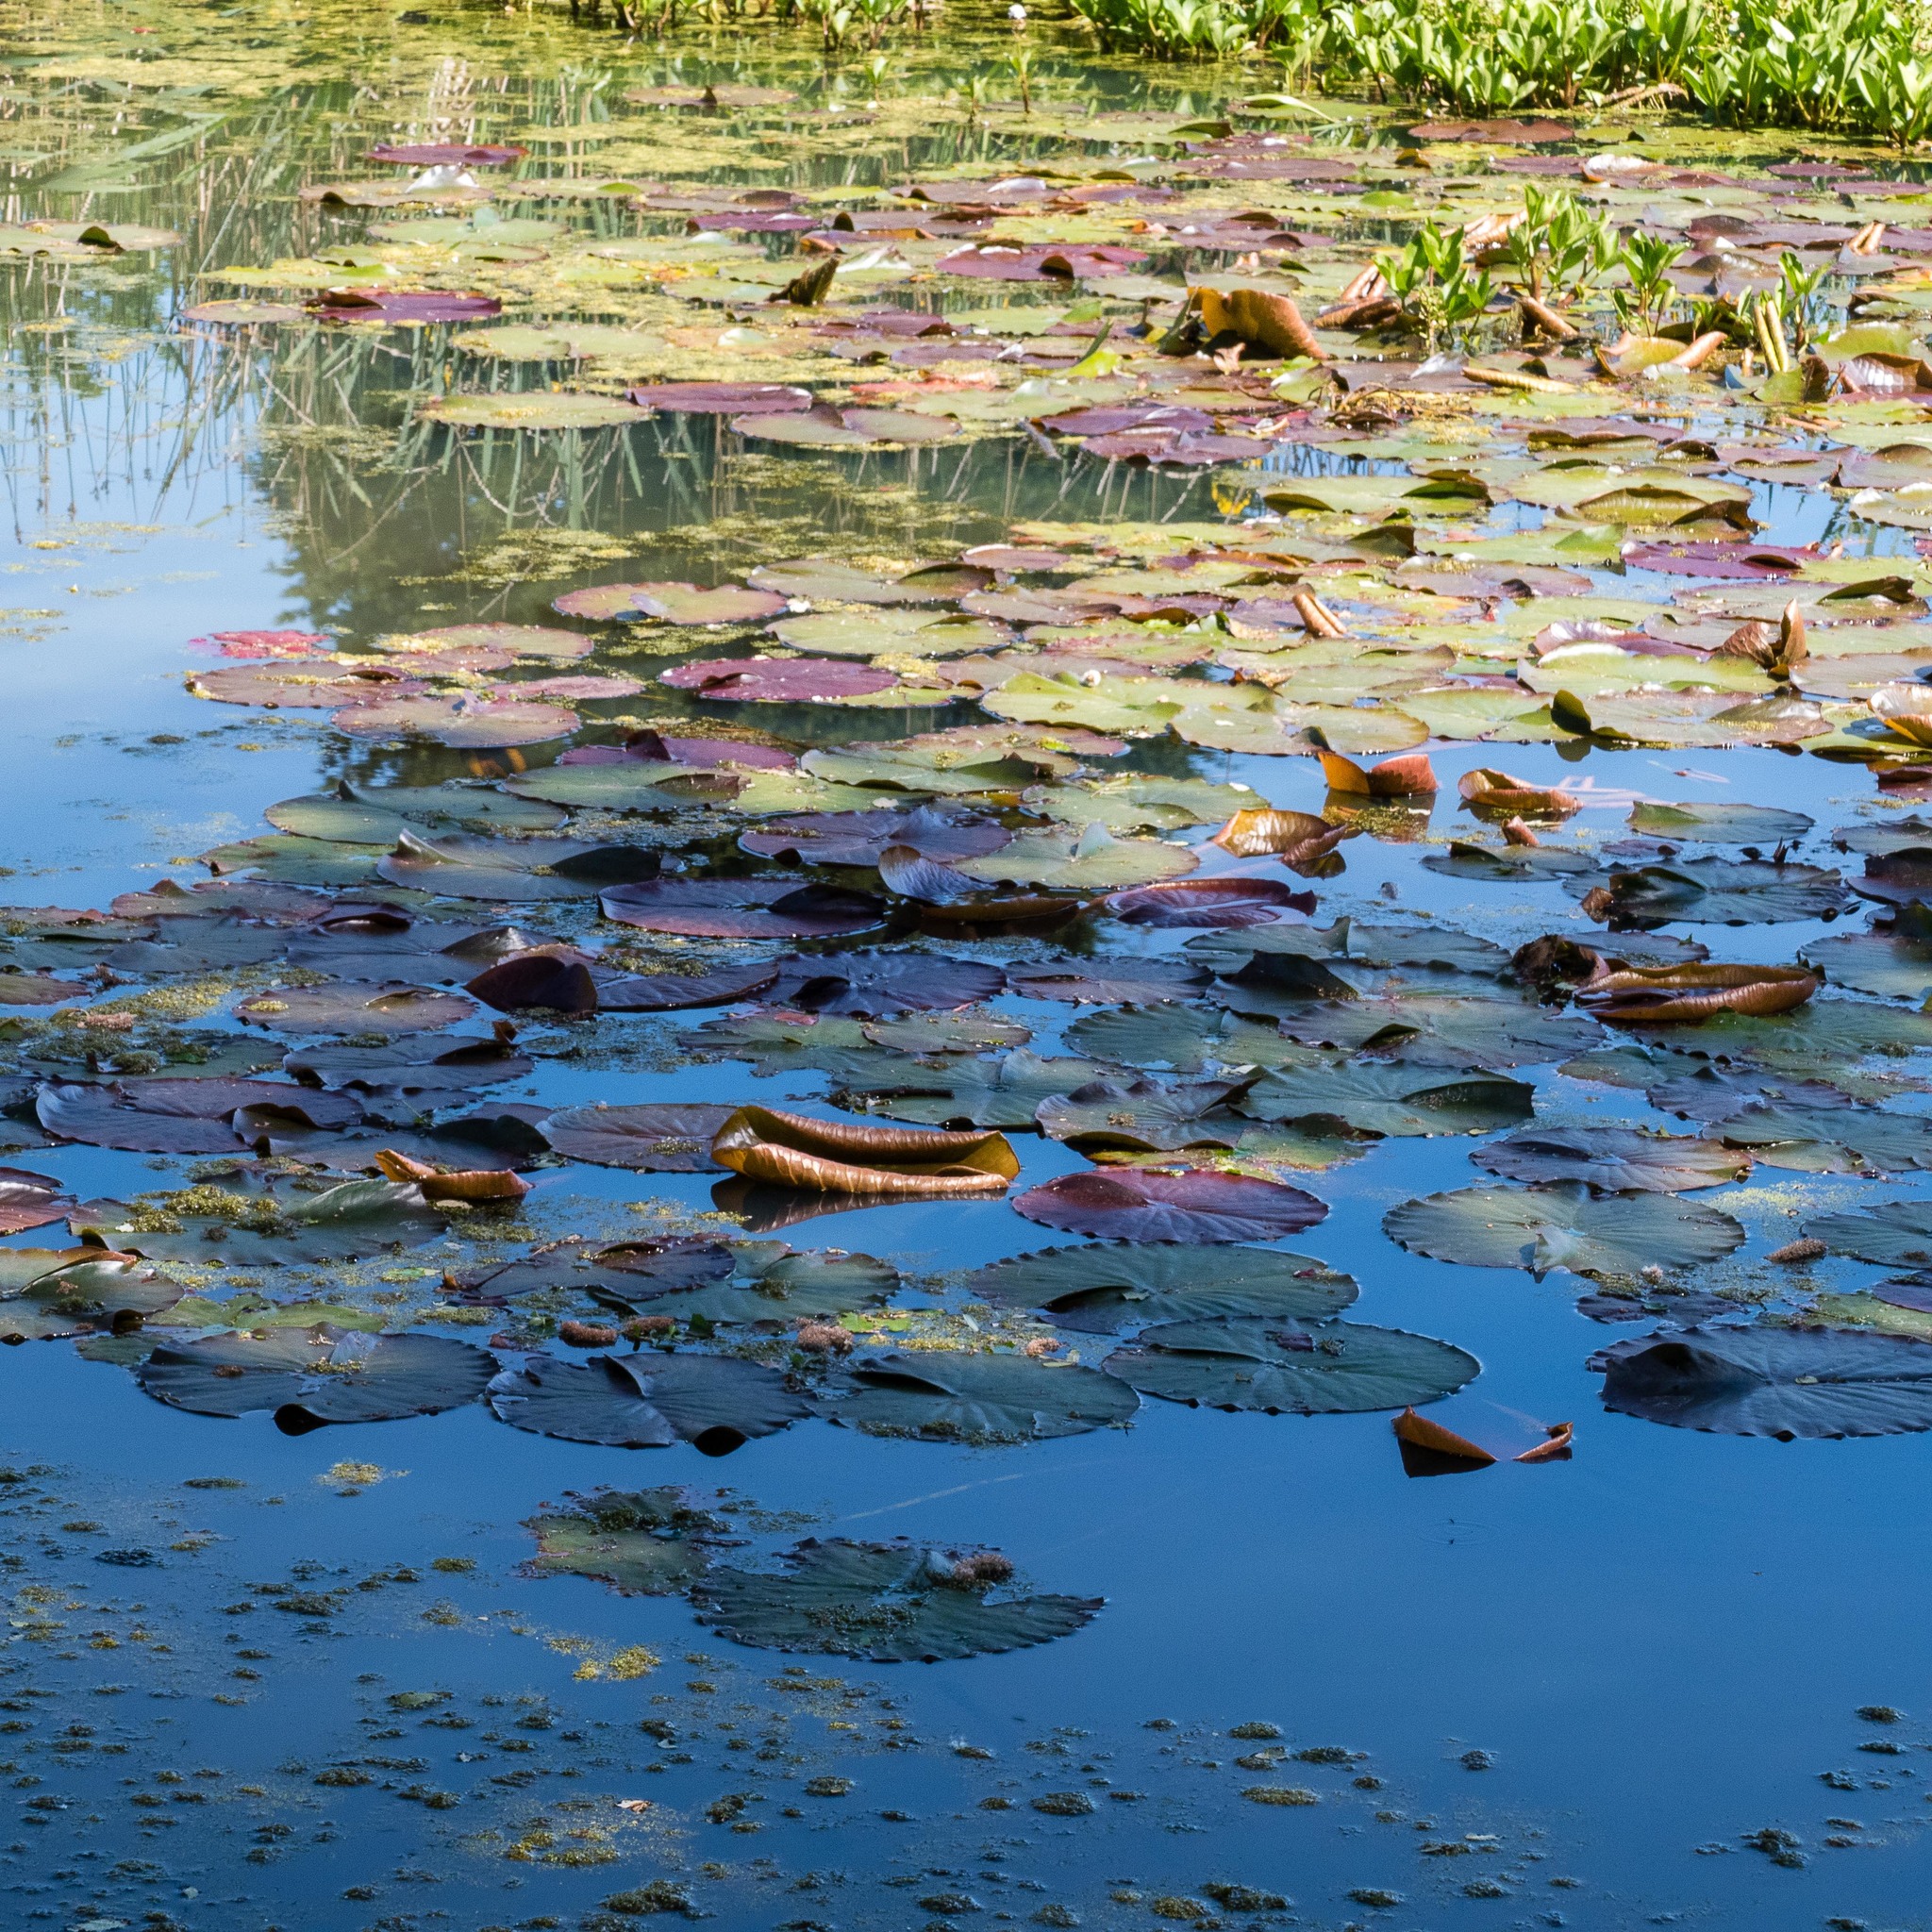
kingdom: Plantae
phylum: Tracheophyta
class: Magnoliopsida
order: Nymphaeales
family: Nymphaeaceae
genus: Nuphar
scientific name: Nuphar lutea
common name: Yellow water-lily
